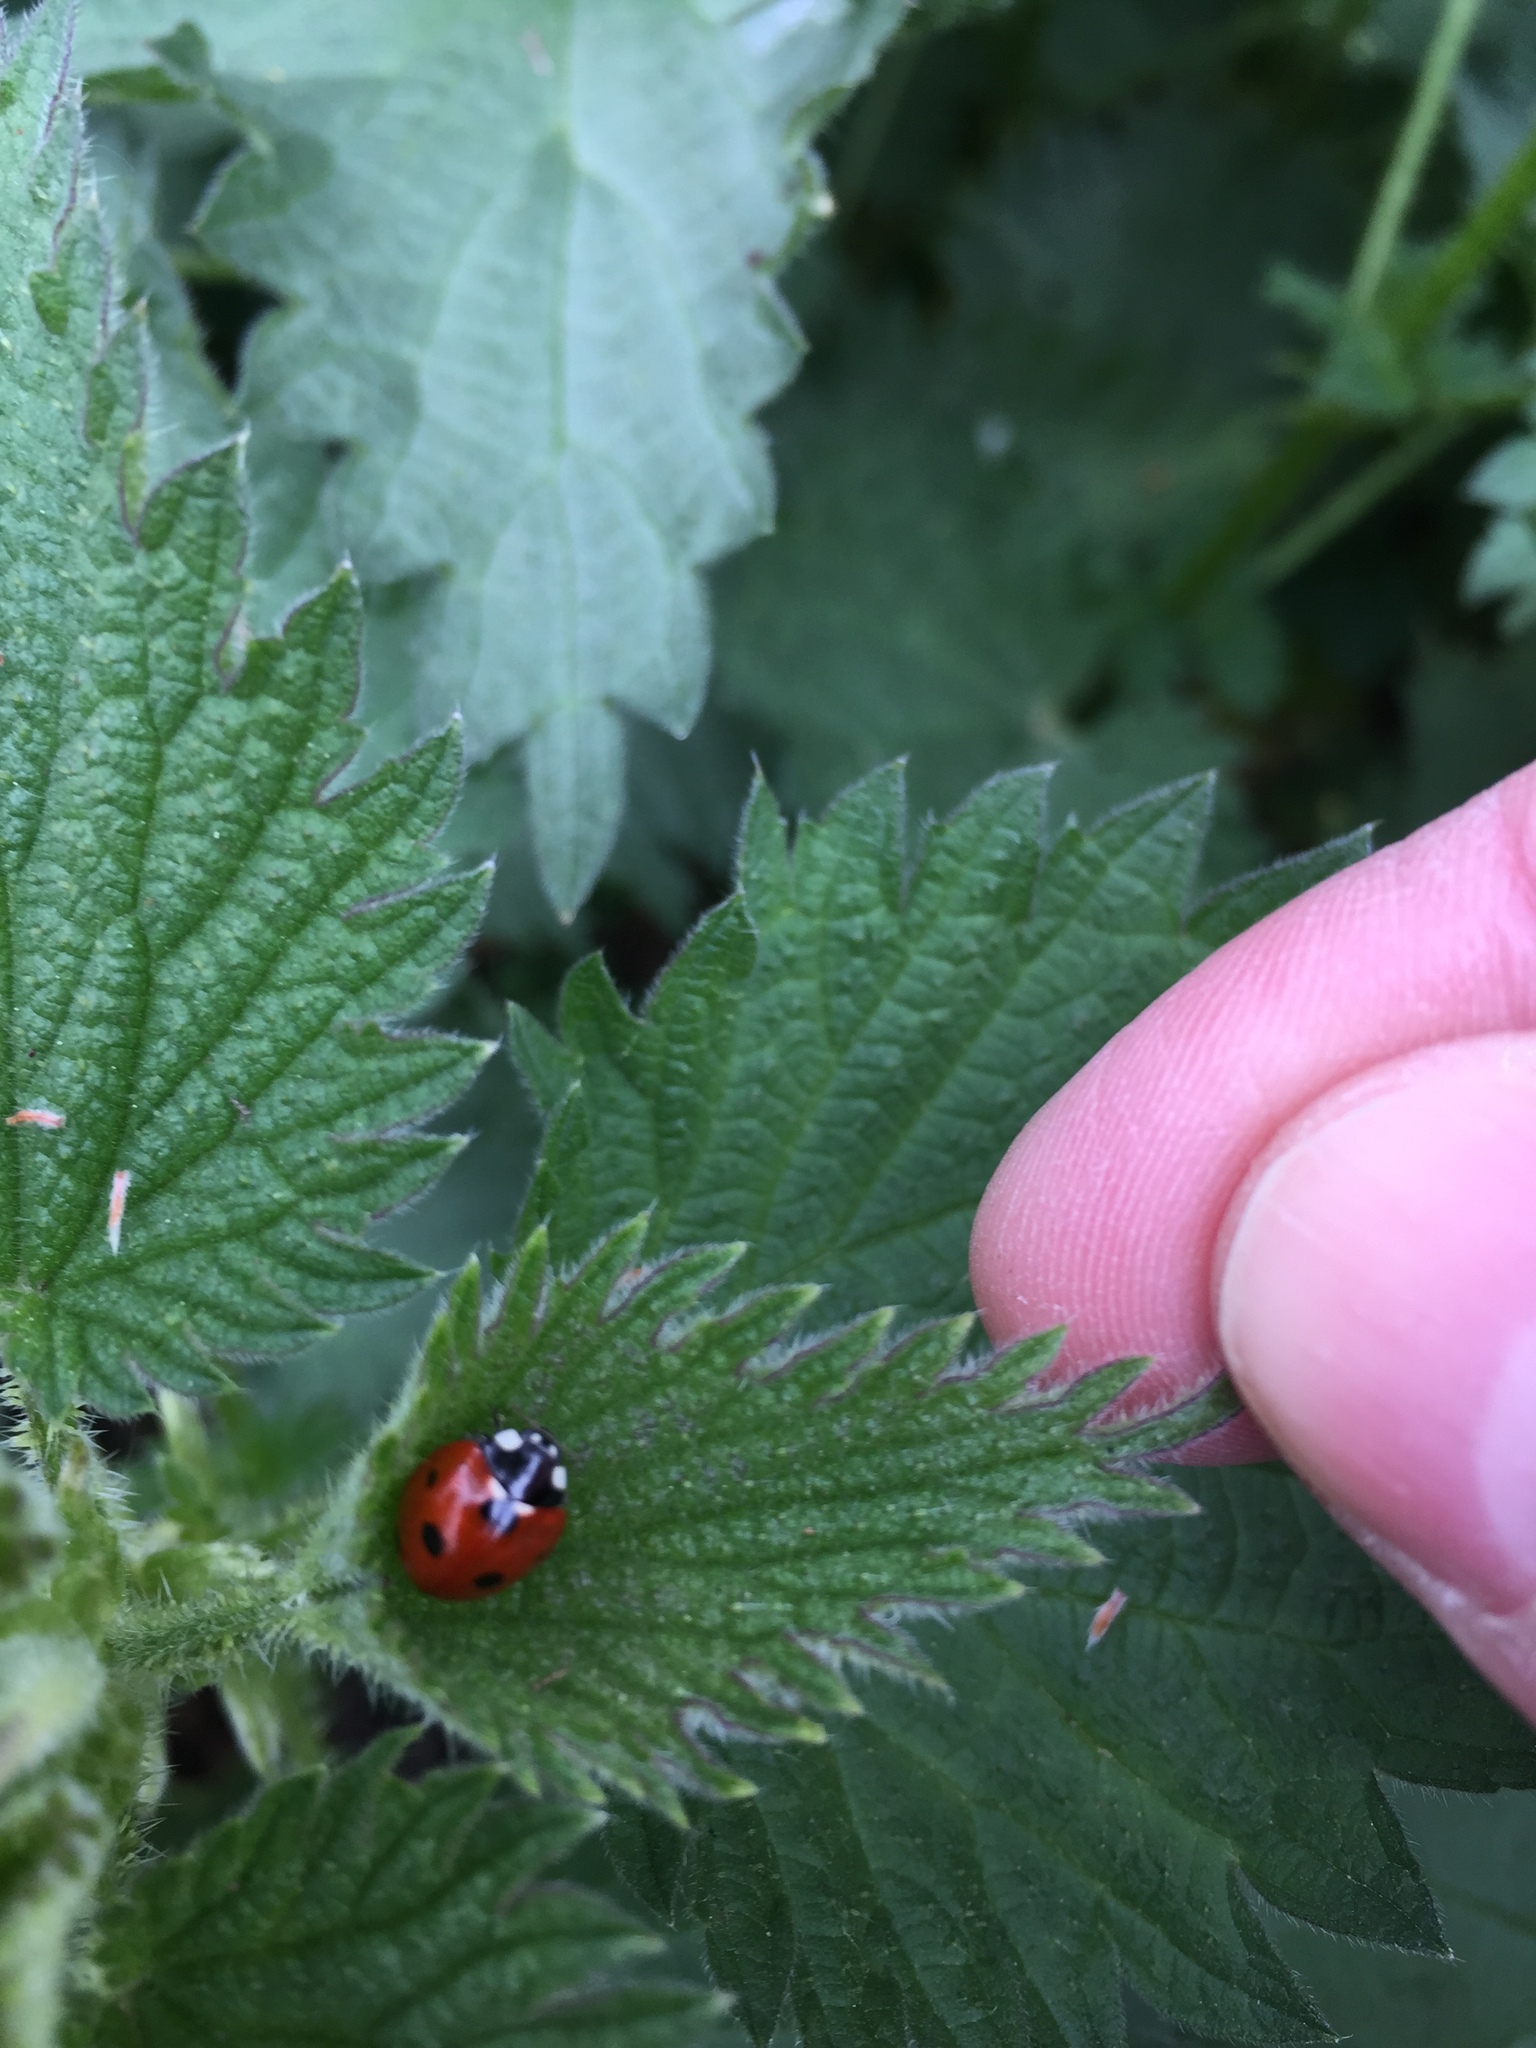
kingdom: Animalia
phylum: Arthropoda
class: Insecta
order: Coleoptera
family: Coccinellidae
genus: Coccinella
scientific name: Coccinella septempunctata
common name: Sevenspotted lady beetle
